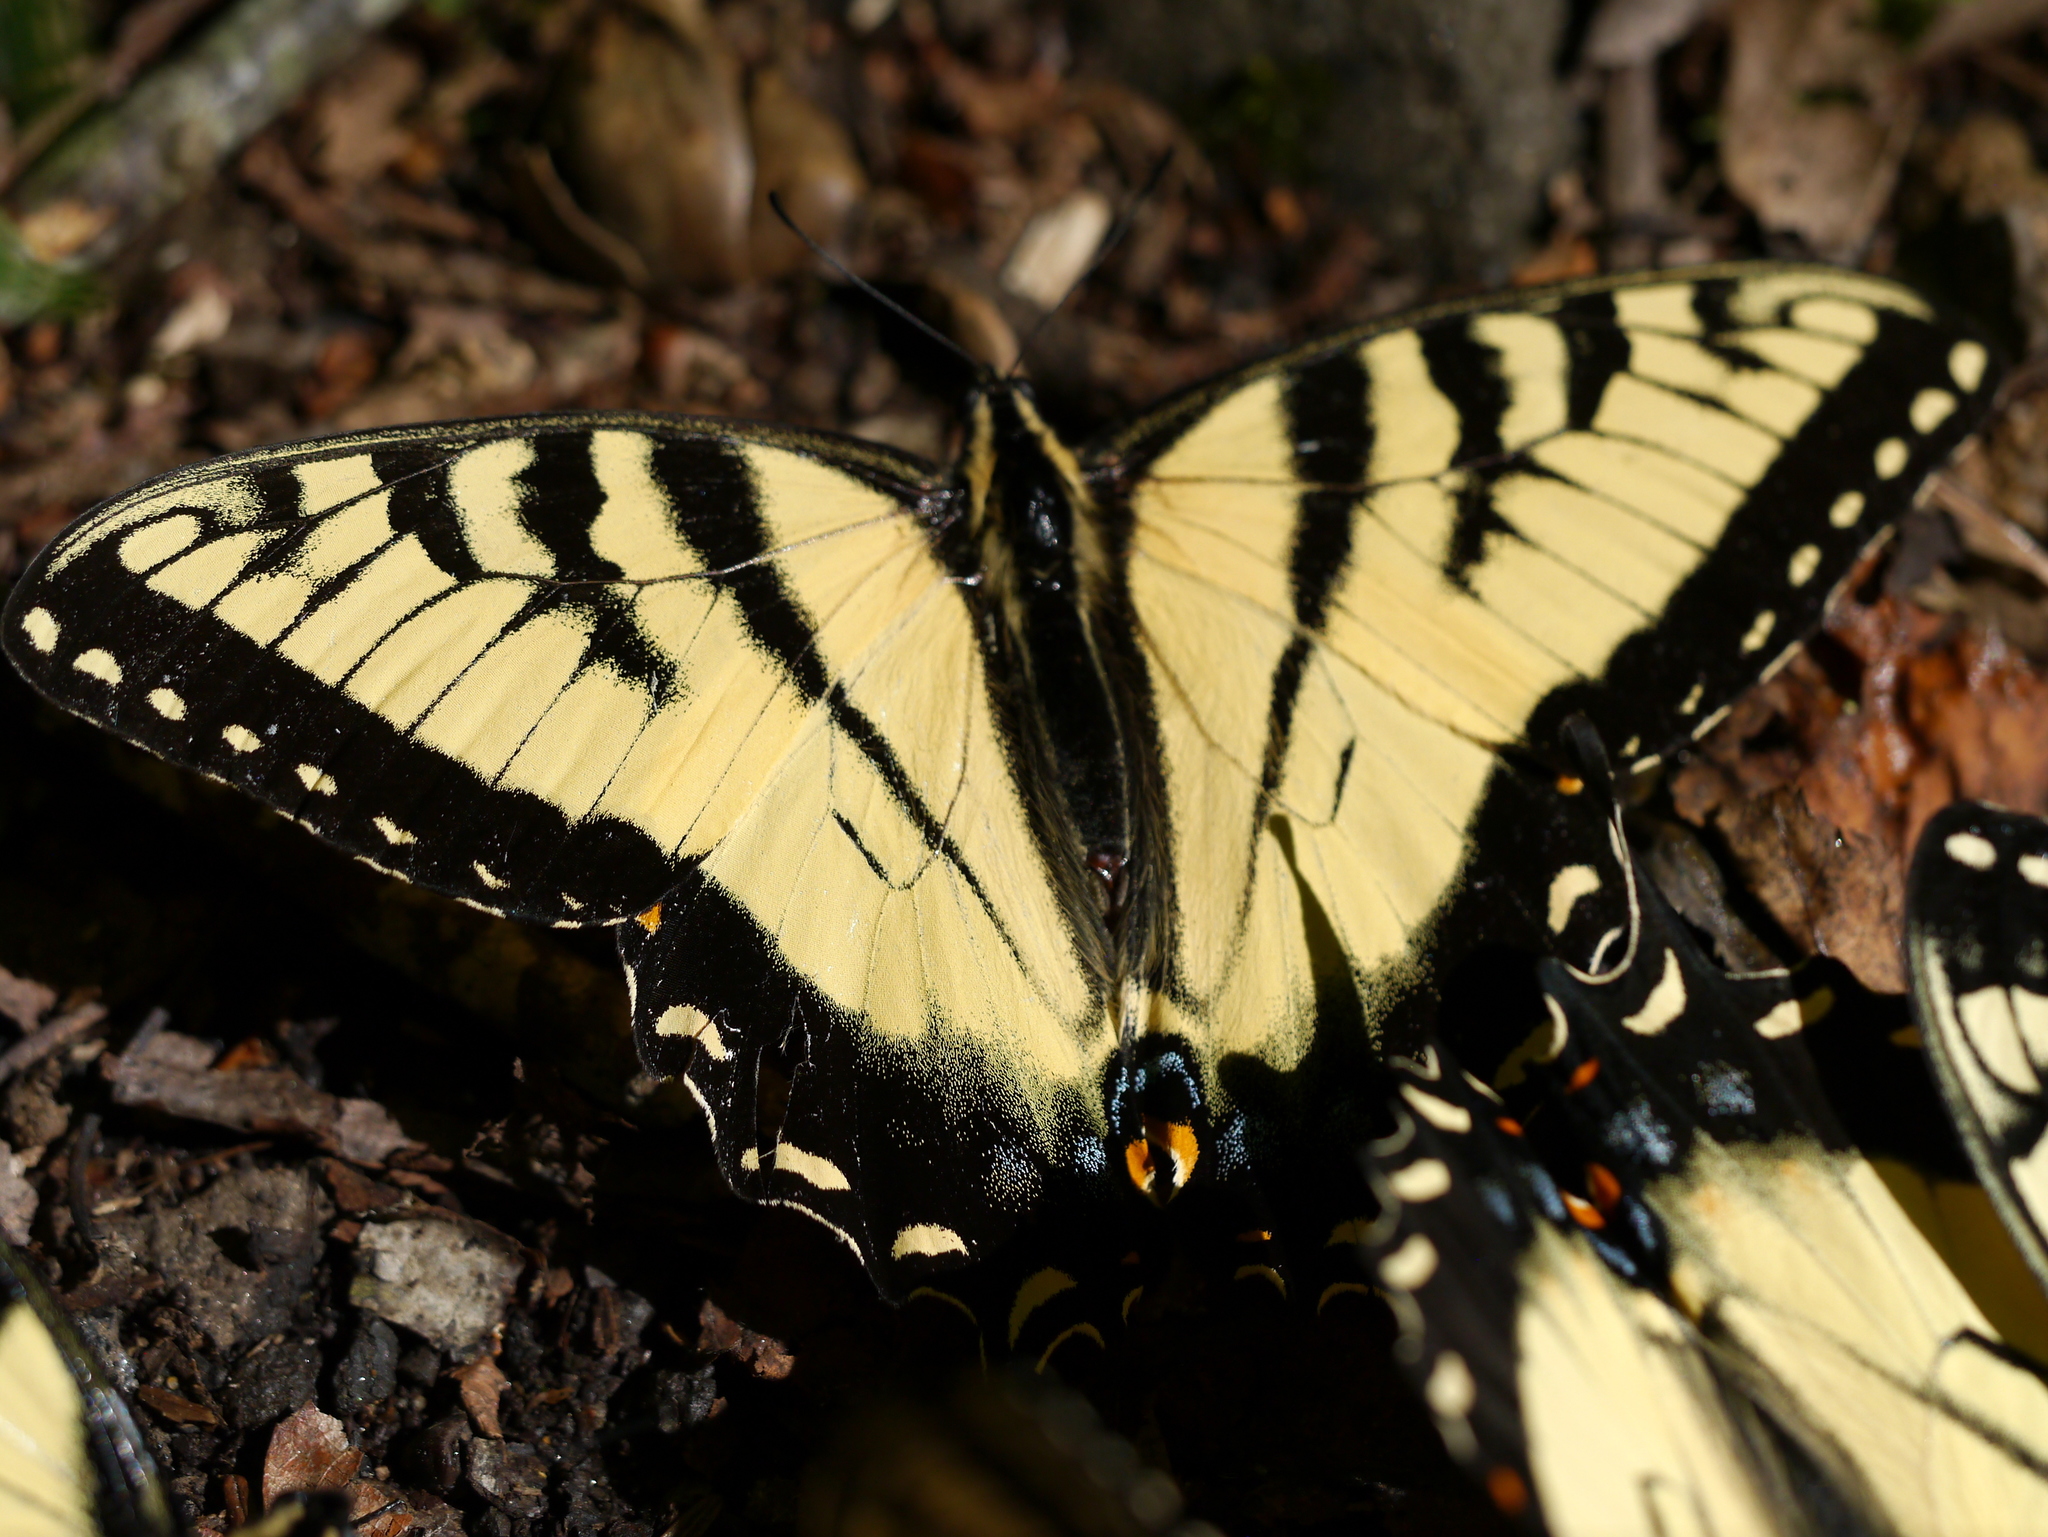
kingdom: Animalia
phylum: Arthropoda
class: Insecta
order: Lepidoptera
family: Papilionidae
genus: Papilio
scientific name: Papilio glaucus
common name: Tiger swallowtail
